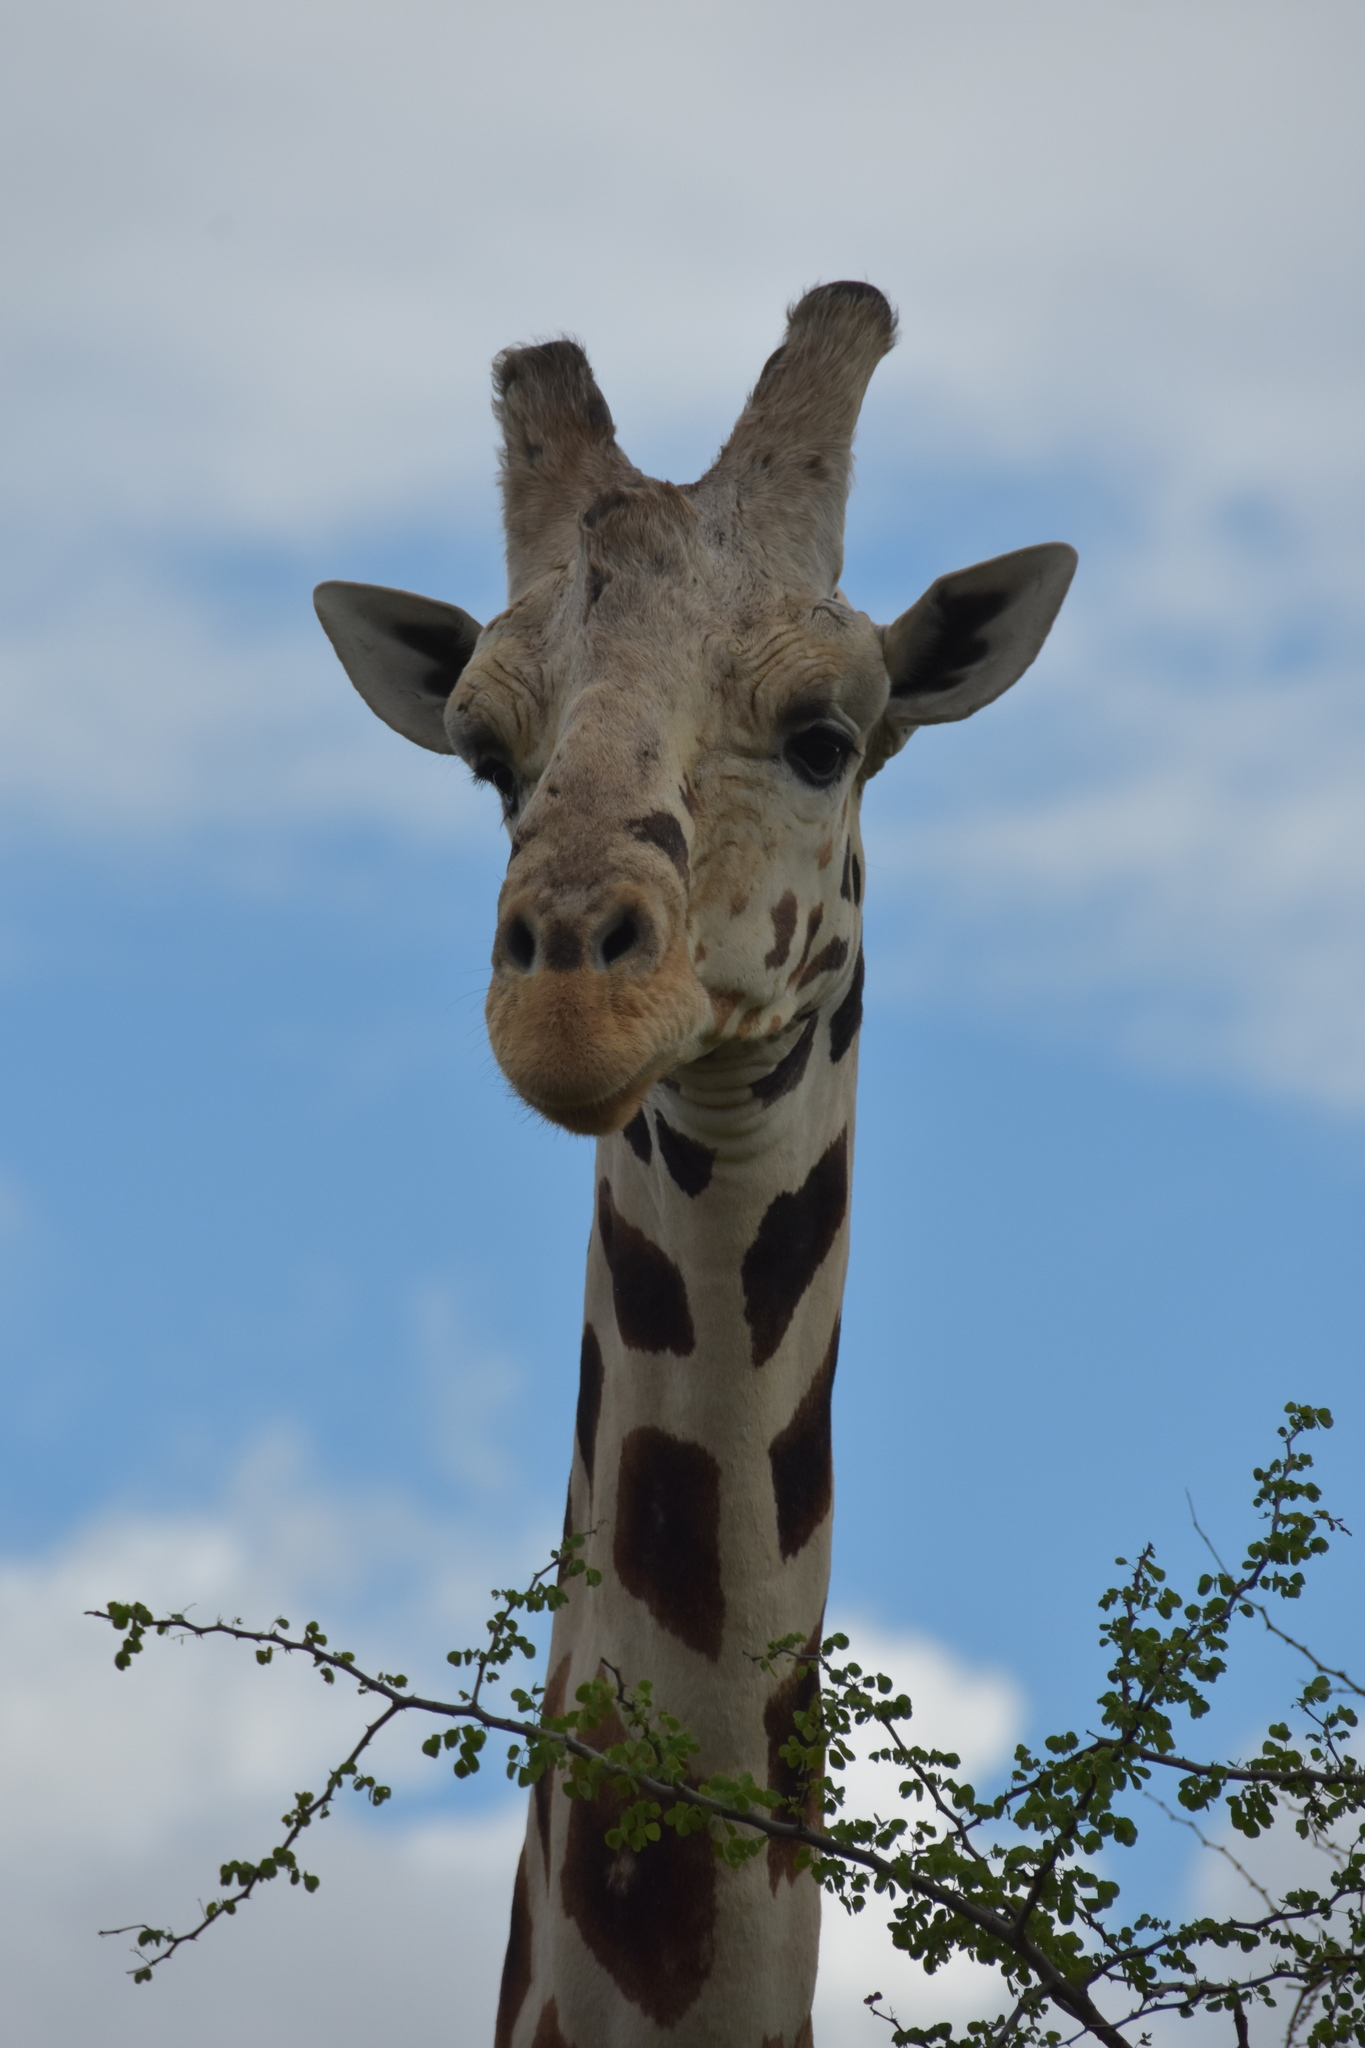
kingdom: Animalia
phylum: Chordata
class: Mammalia
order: Artiodactyla
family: Giraffidae
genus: Giraffa
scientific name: Giraffa reticulata
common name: Reticulated giraffe
